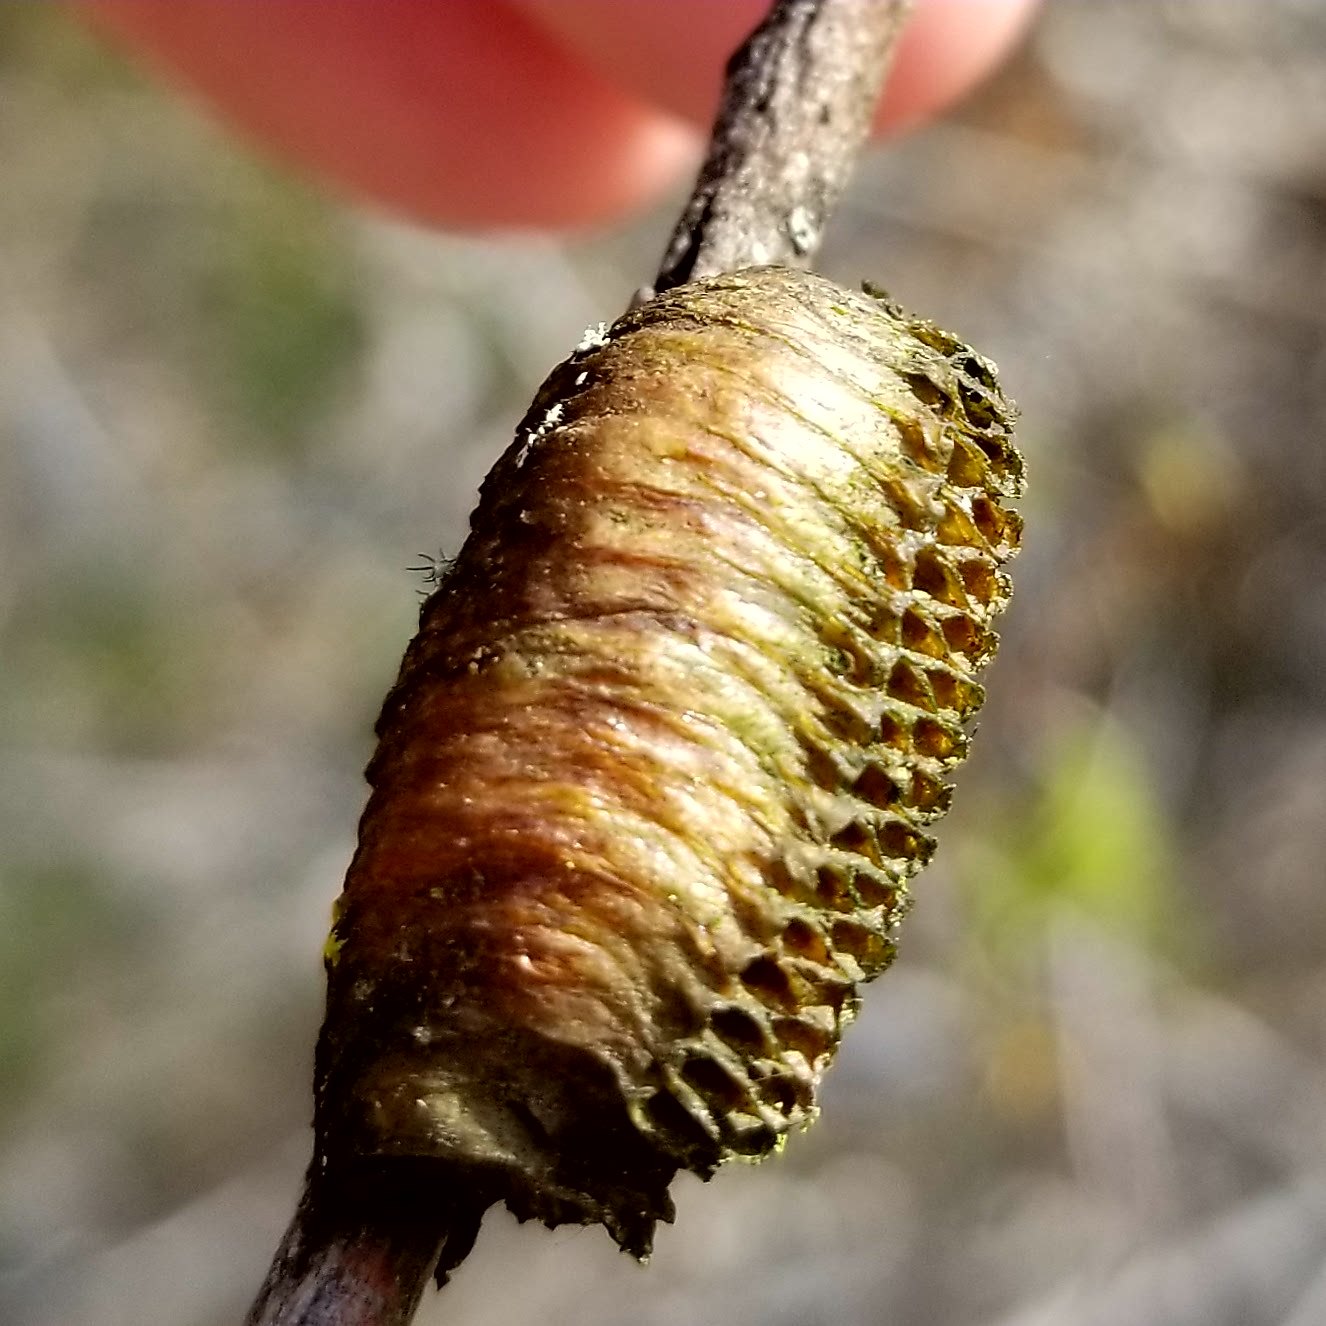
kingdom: Animalia
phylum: Arthropoda
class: Insecta
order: Mantodea
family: Mantidae
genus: Stagmomantis
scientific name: Stagmomantis limbata
